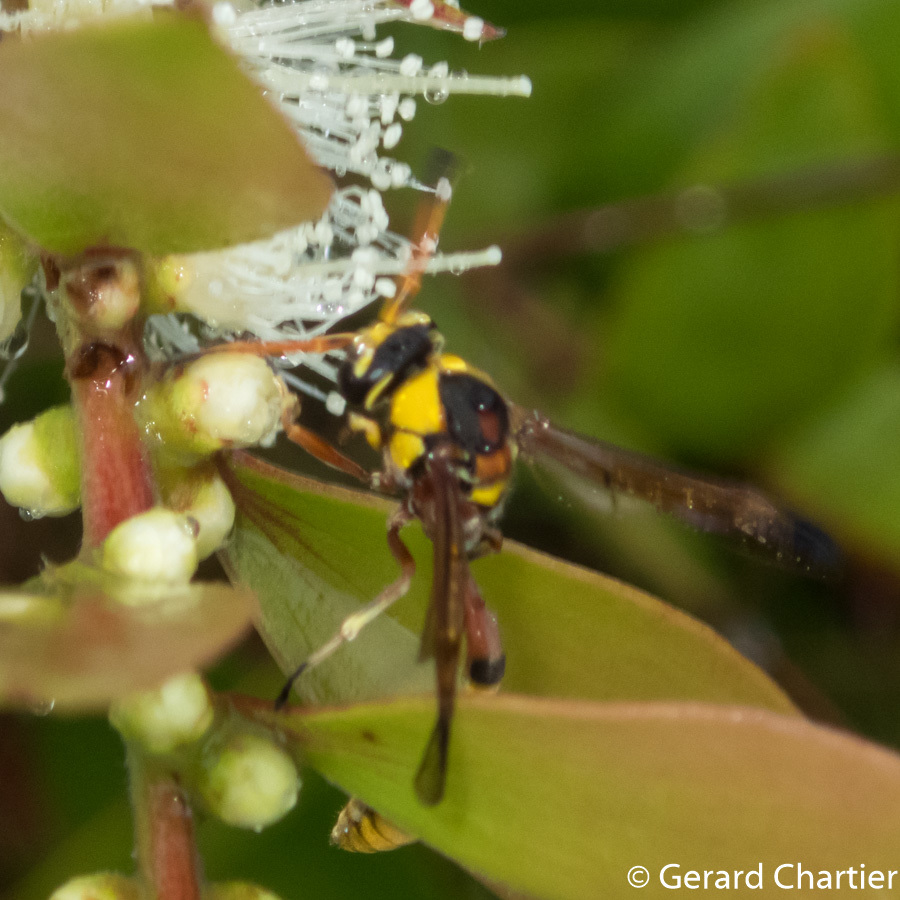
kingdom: Animalia
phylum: Arthropoda
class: Insecta
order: Hymenoptera
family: Eumenidae
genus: Delta
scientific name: Delta esuriens
